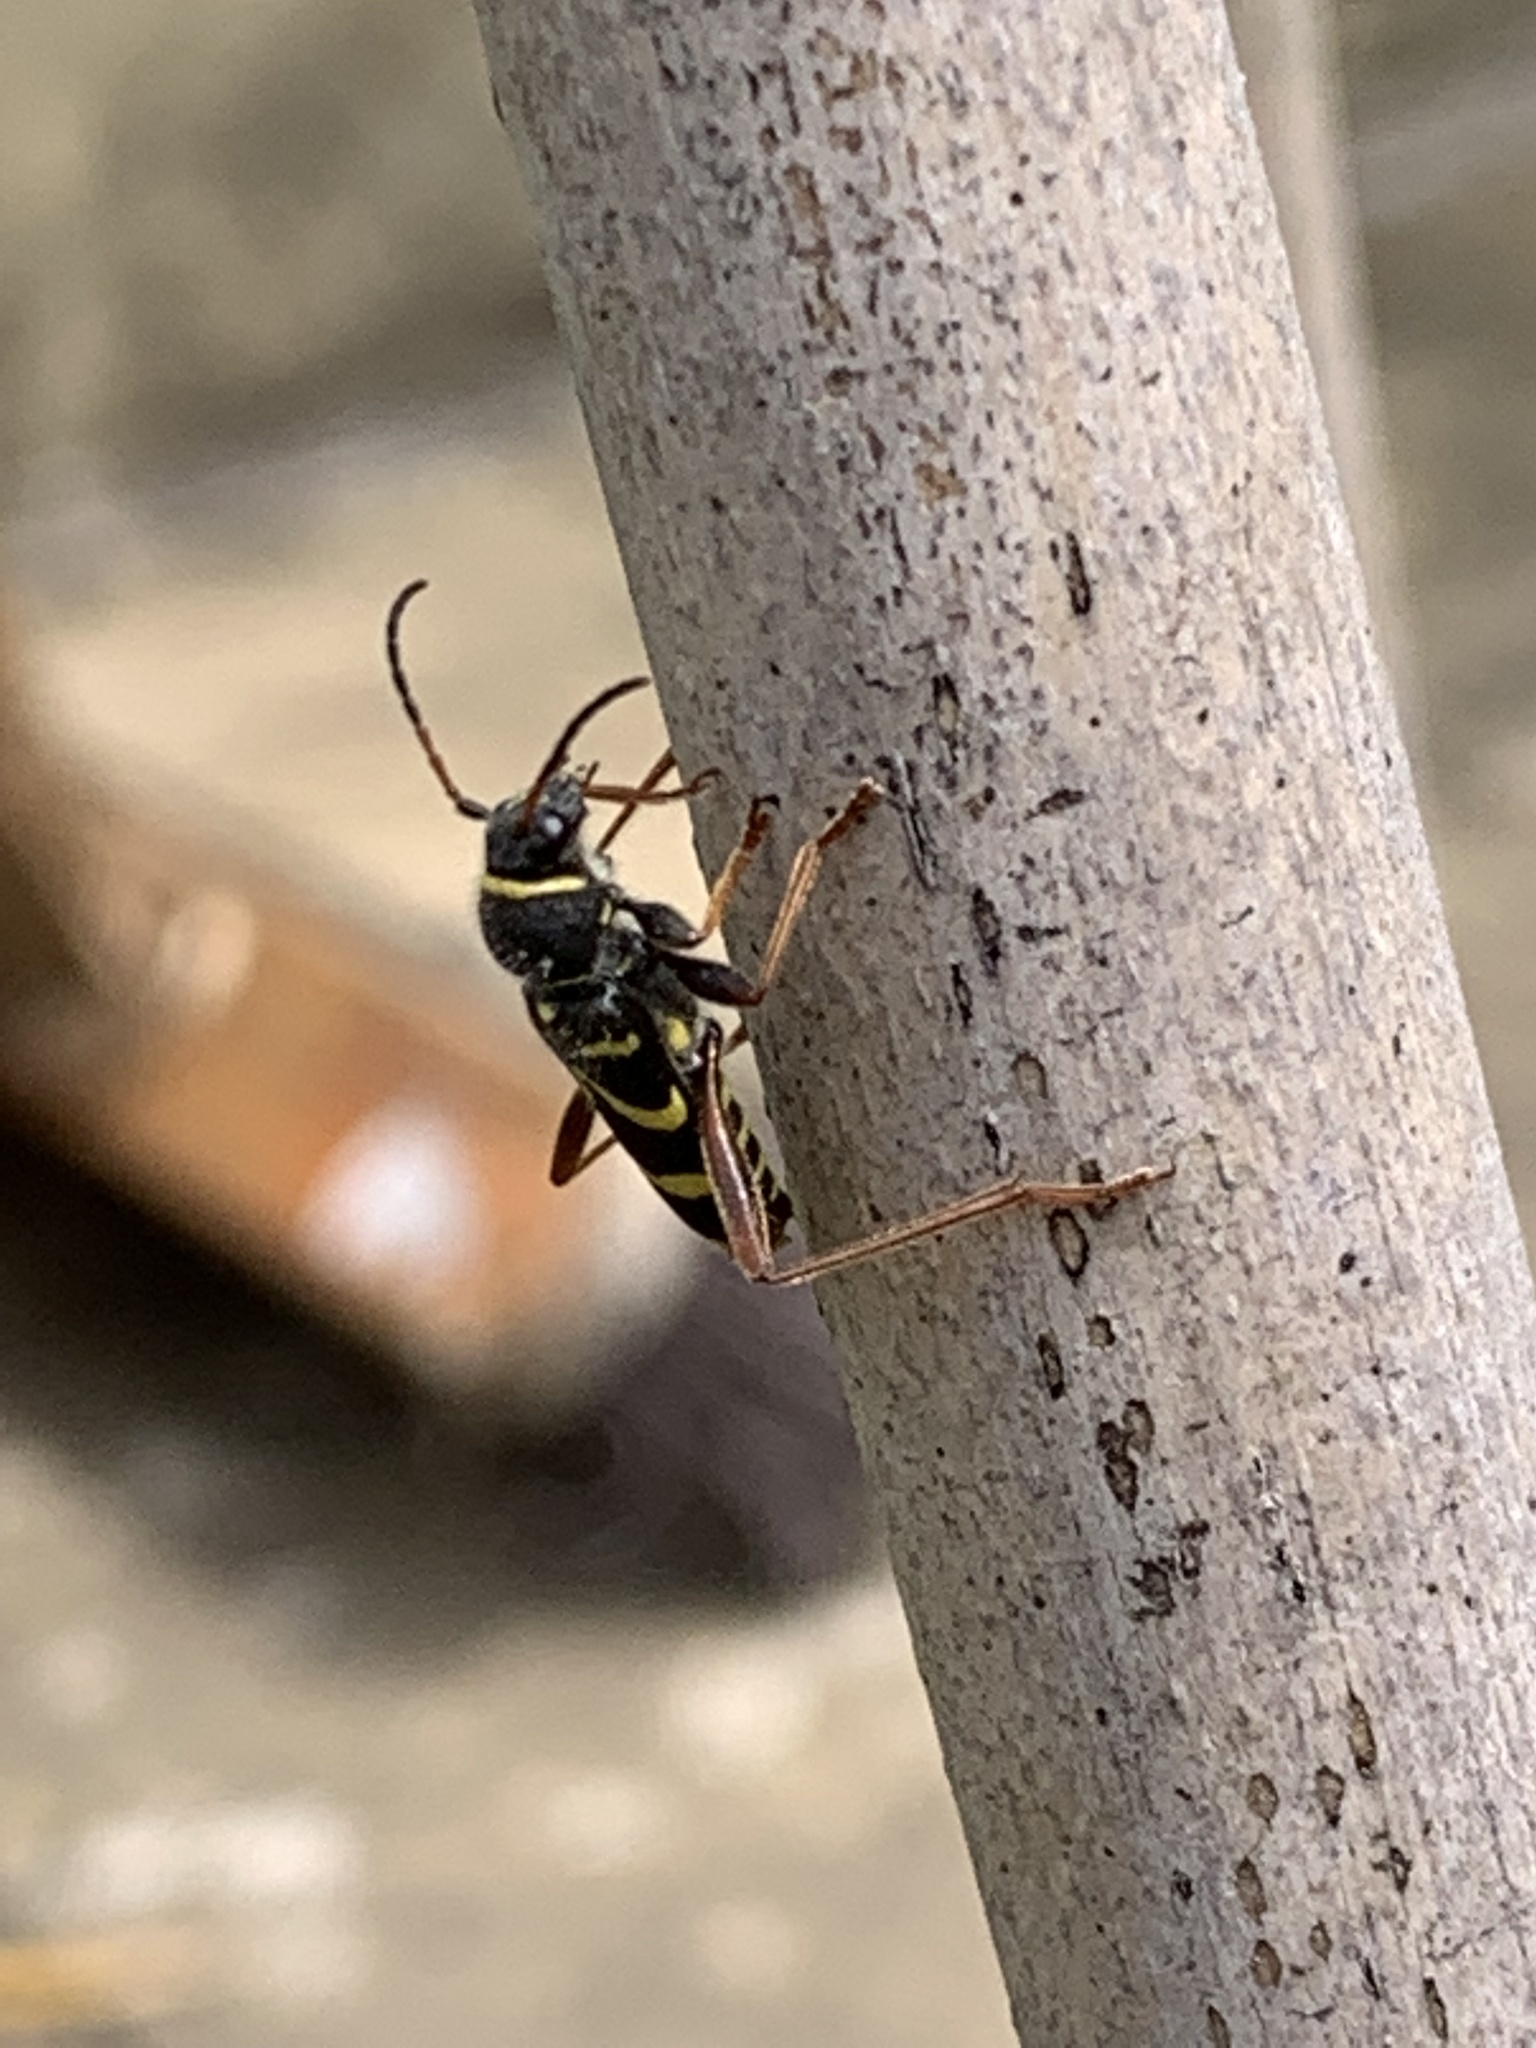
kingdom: Animalia
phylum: Arthropoda
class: Insecta
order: Coleoptera
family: Cerambycidae
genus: Clytus
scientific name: Clytus arietis
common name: Wasp beetle
